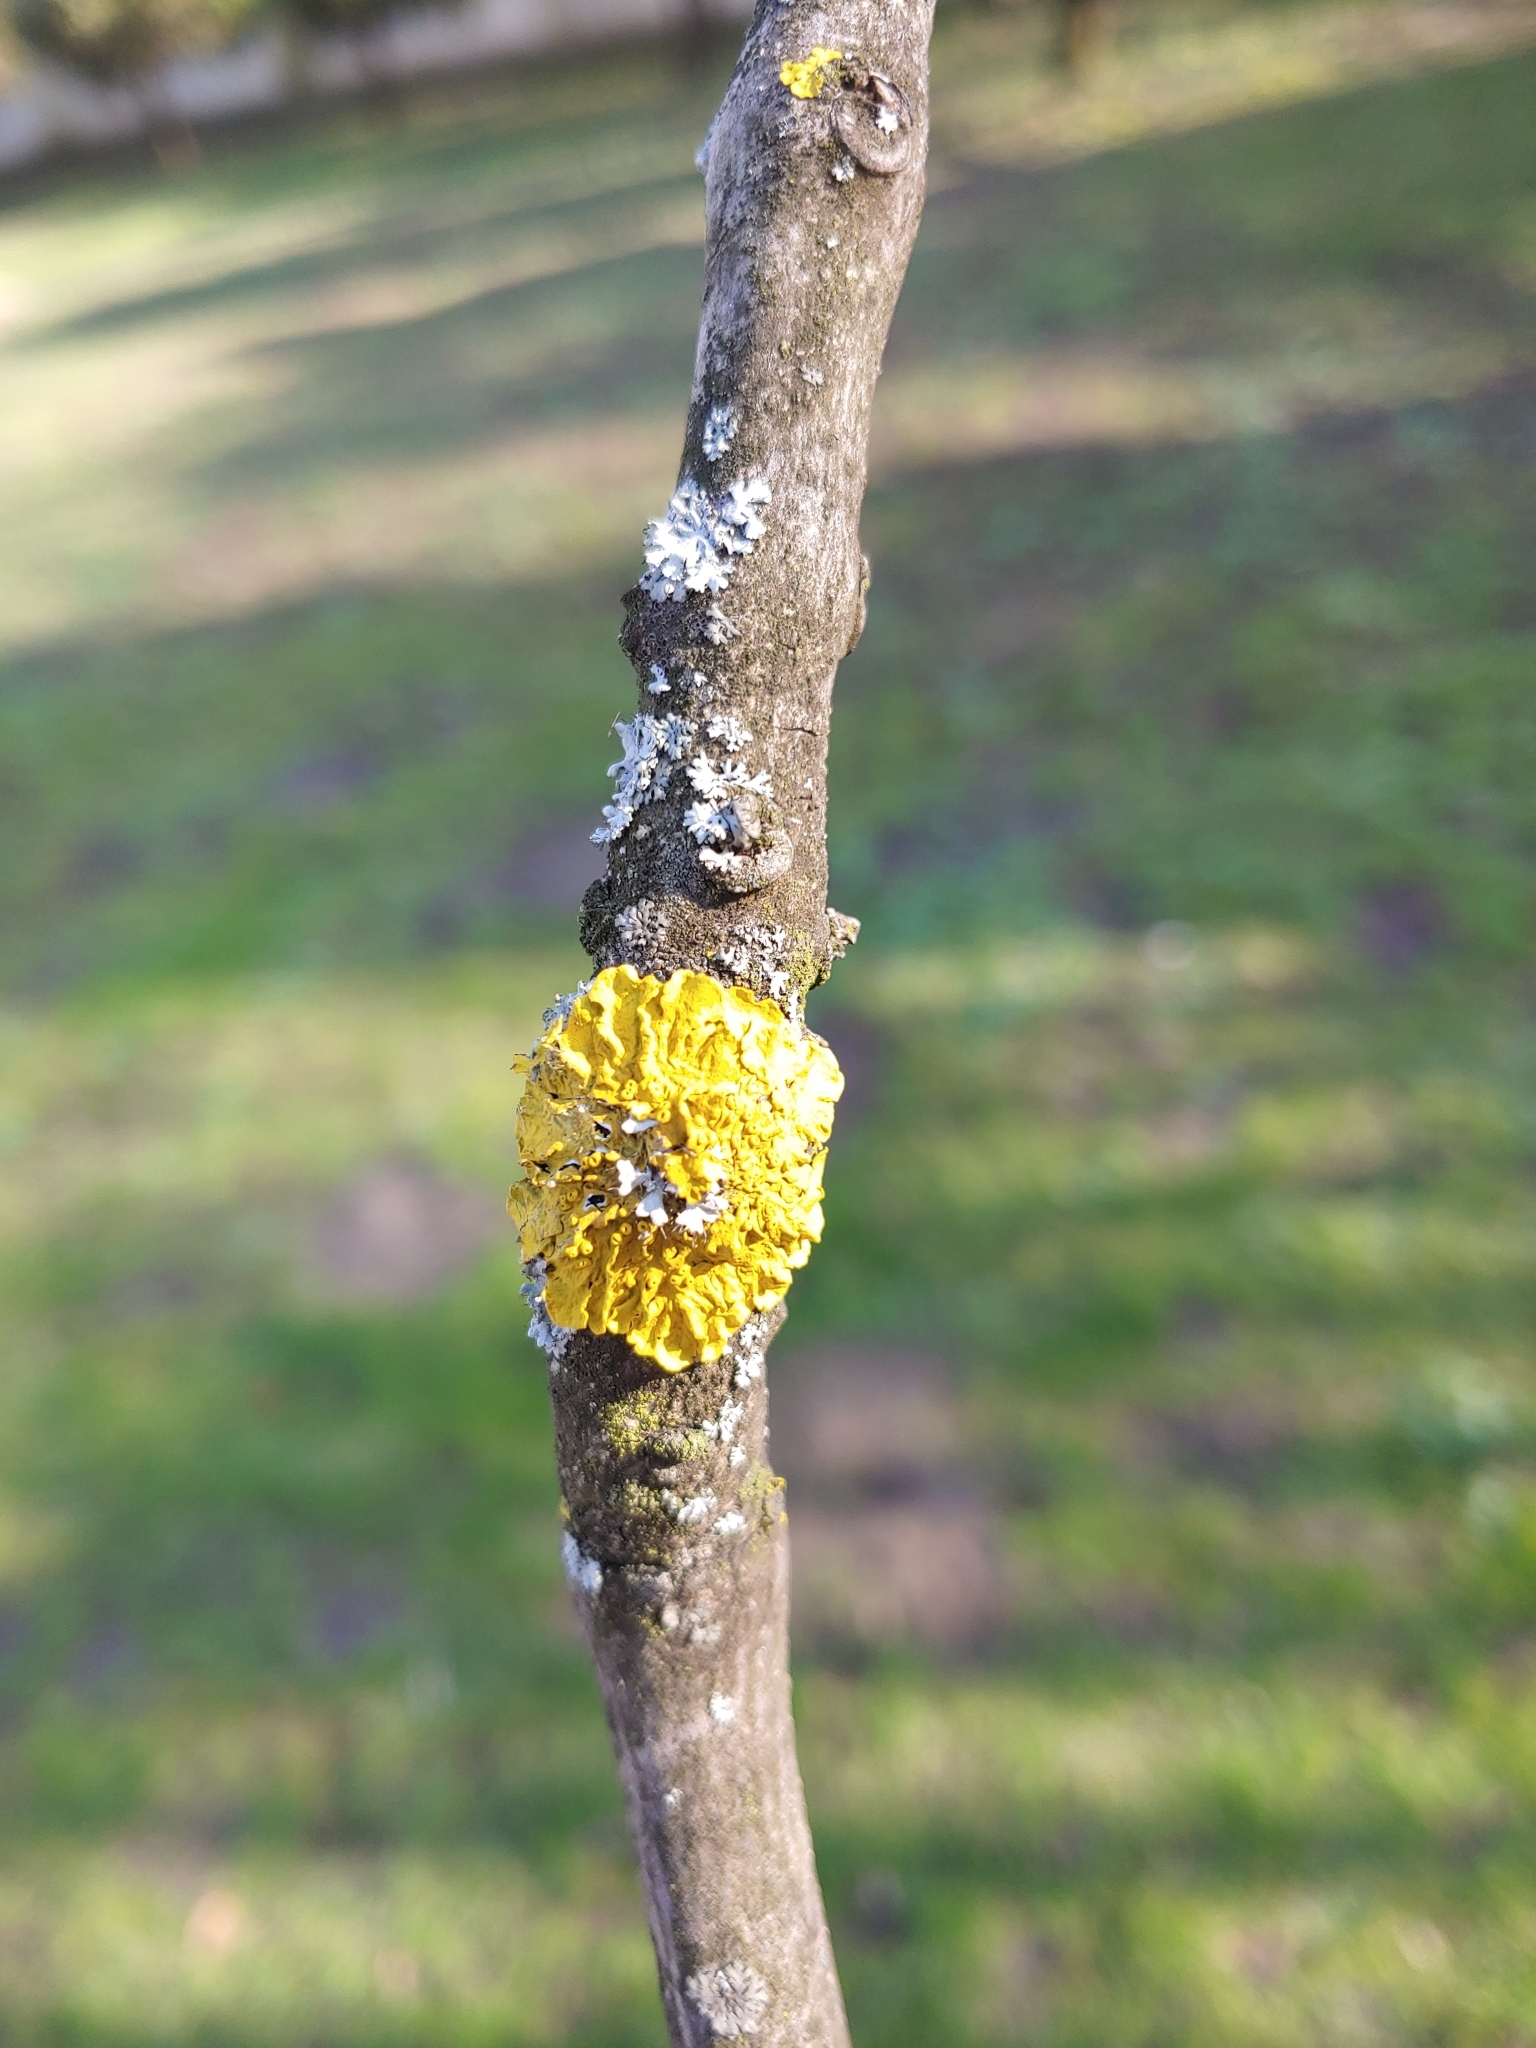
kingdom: Fungi
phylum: Ascomycota
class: Lecanoromycetes
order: Teloschistales
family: Teloschistaceae
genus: Xanthoria
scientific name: Xanthoria parietina
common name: Common orange lichen
